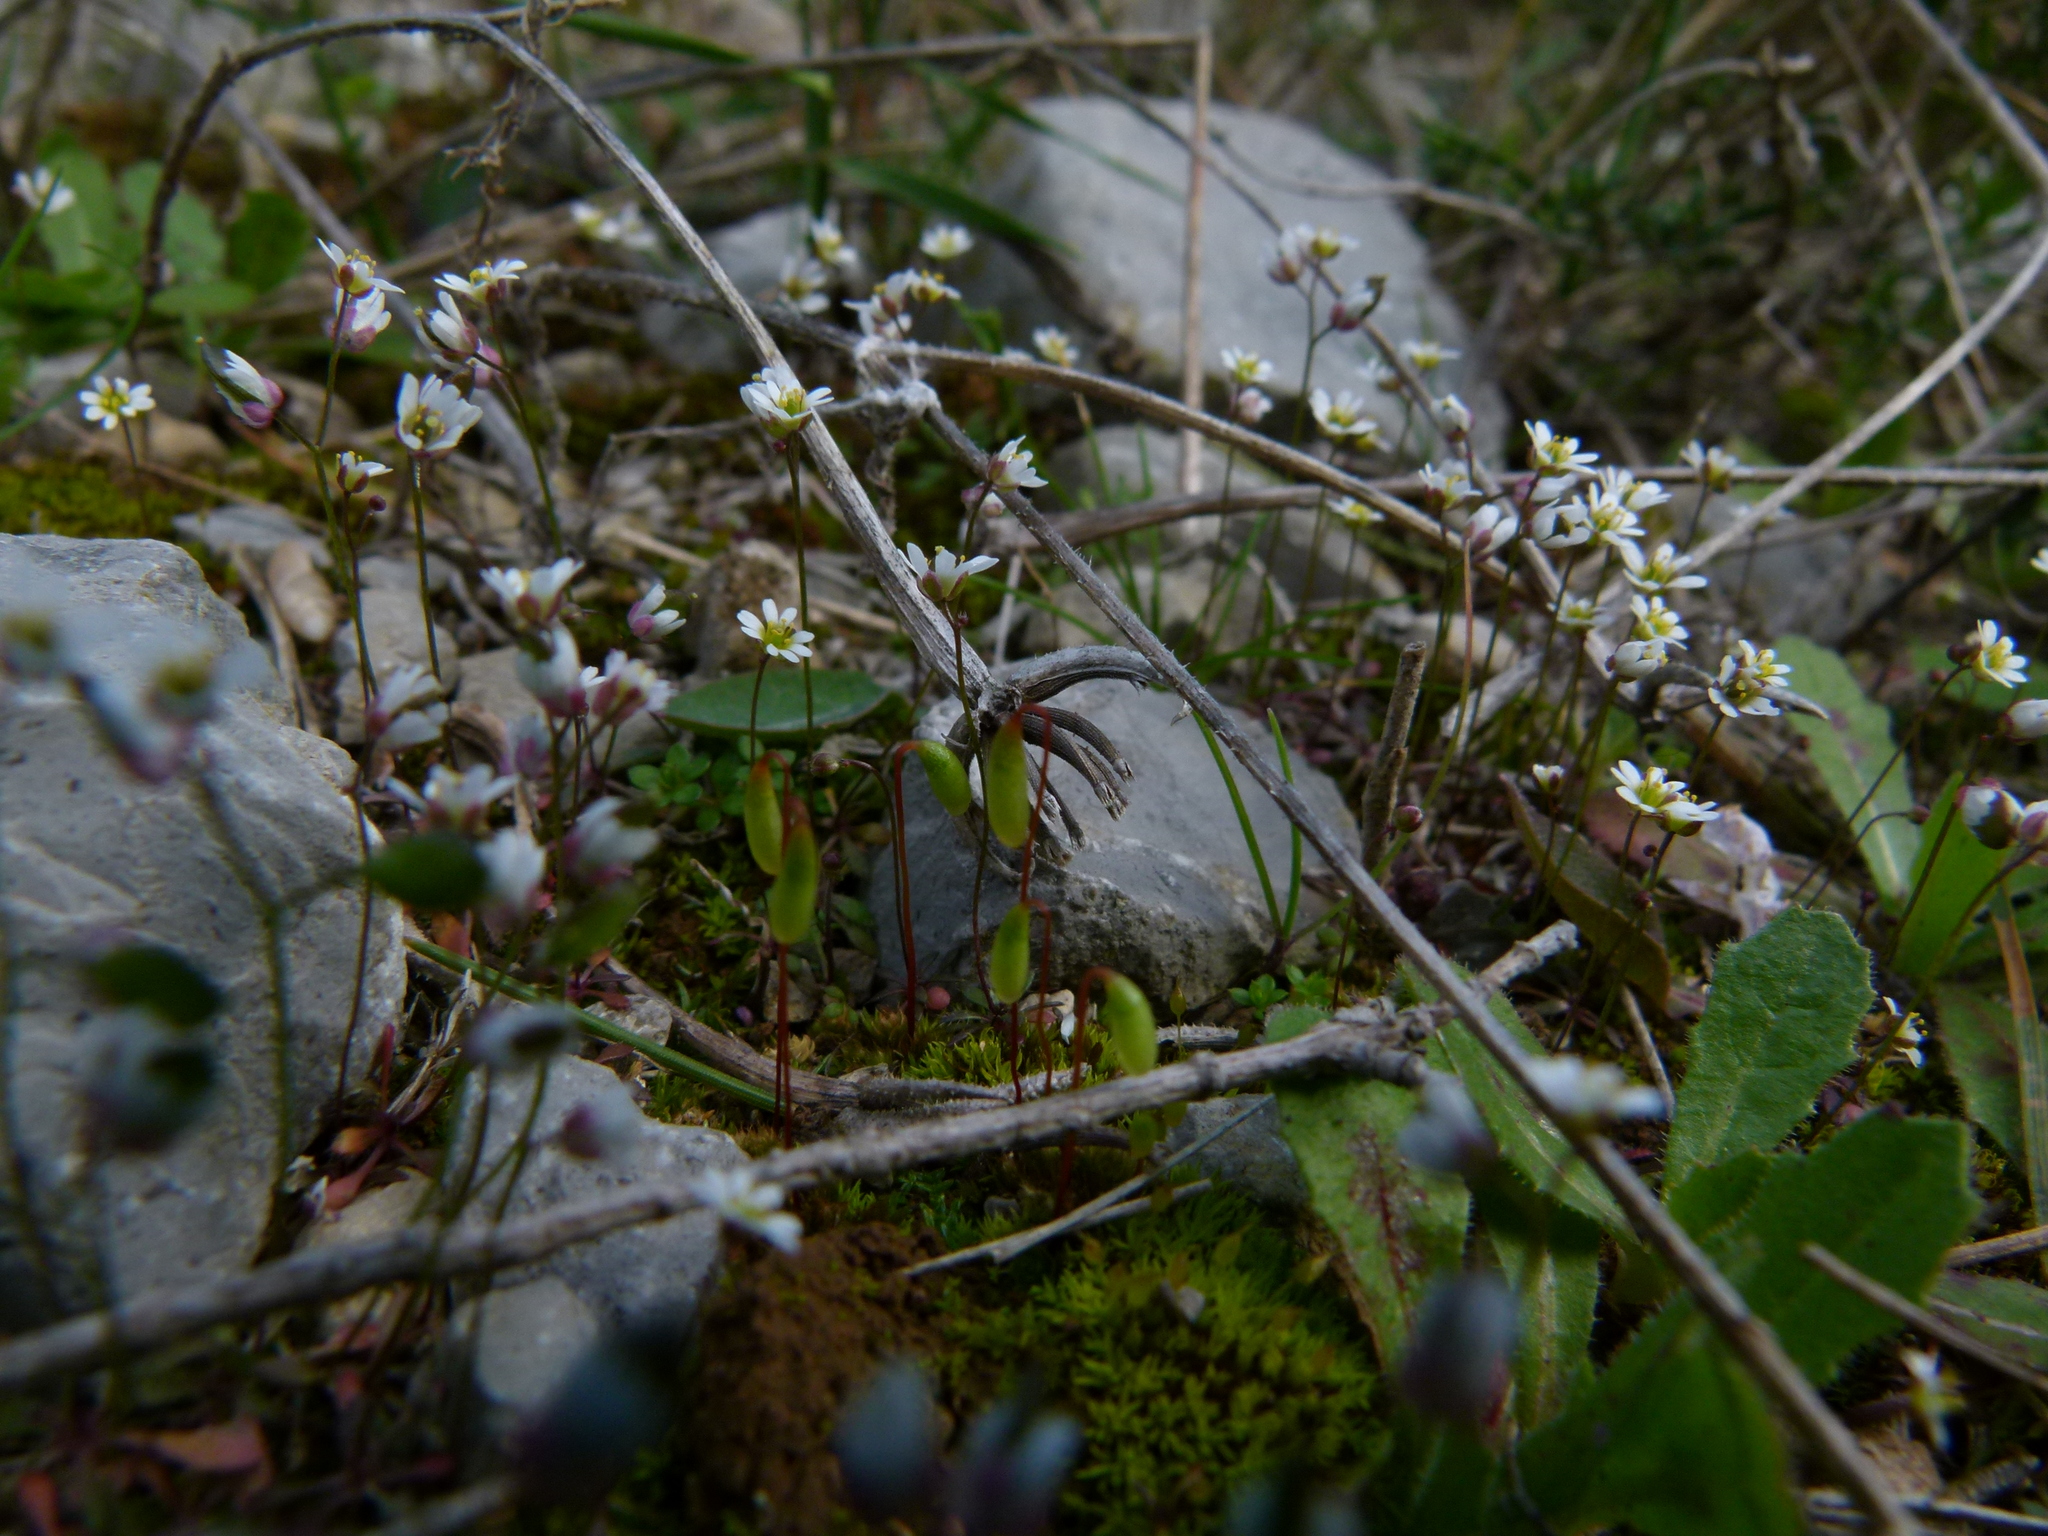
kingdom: Plantae
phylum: Tracheophyta
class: Magnoliopsida
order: Brassicales
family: Brassicaceae
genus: Draba
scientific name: Draba verna
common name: Spring draba
